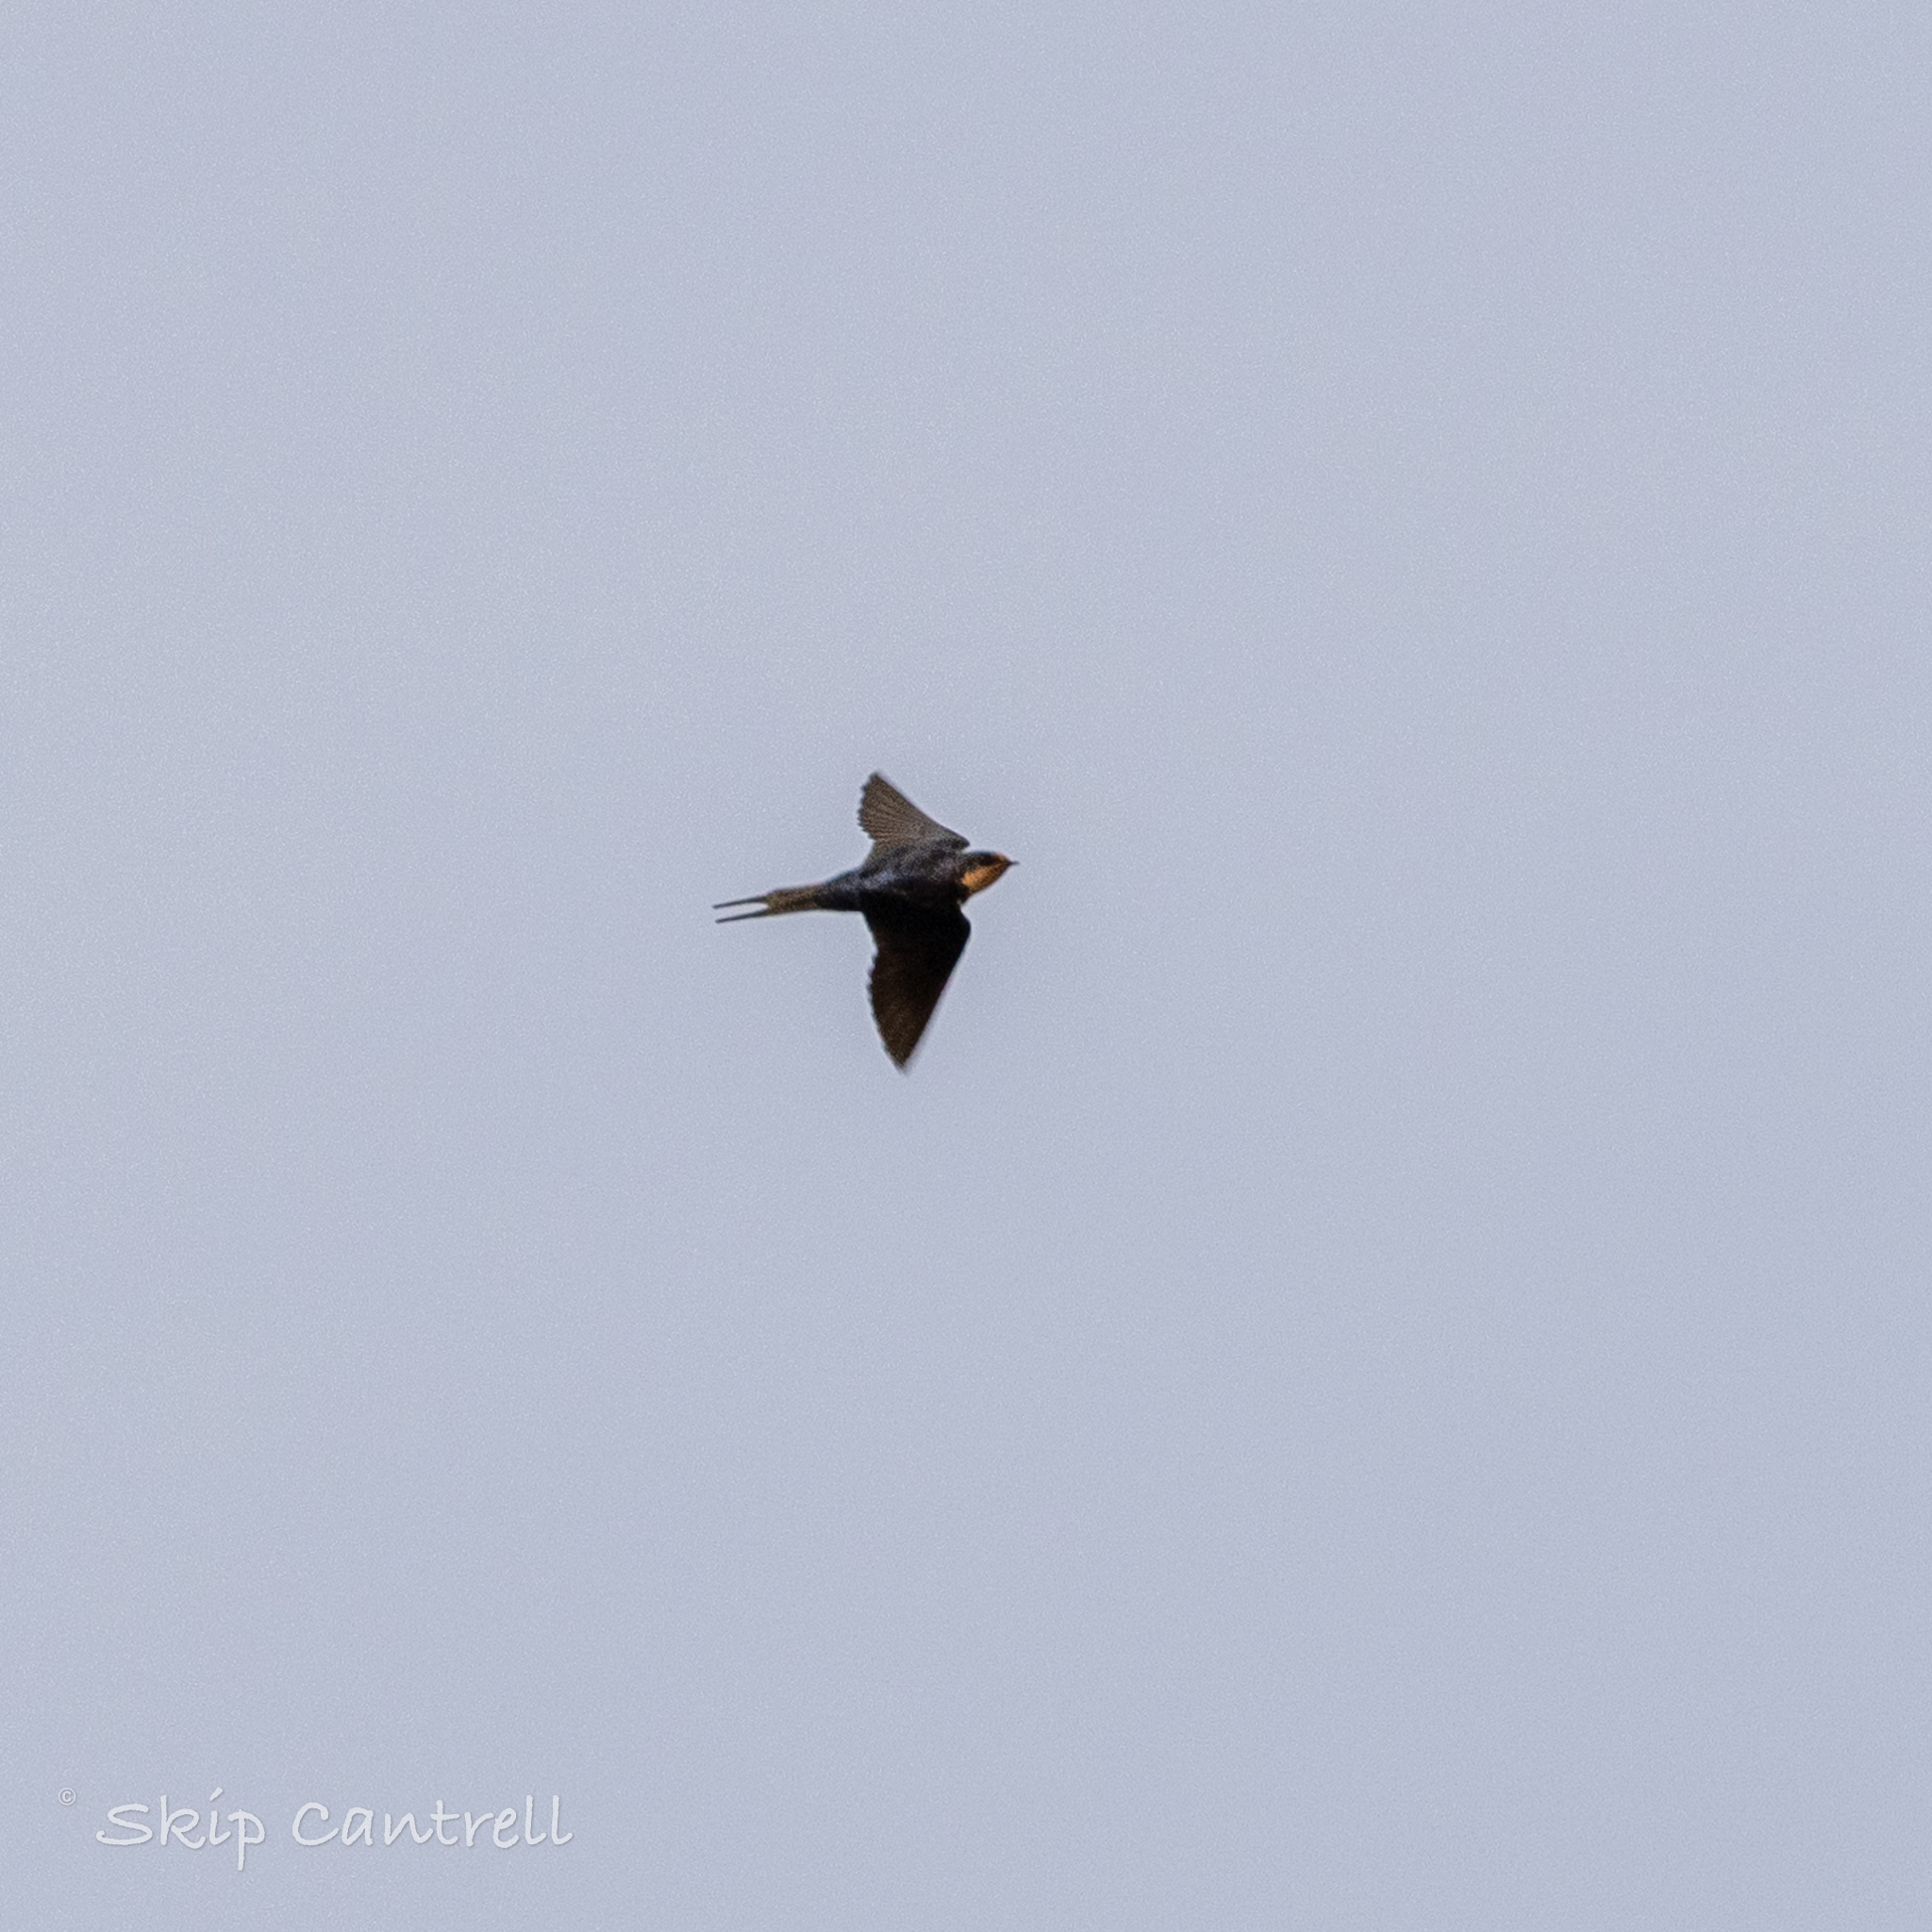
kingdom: Animalia
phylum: Chordata
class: Aves
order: Passeriformes
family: Hirundinidae
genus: Hirundo
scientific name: Hirundo rustica
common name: Barn swallow
